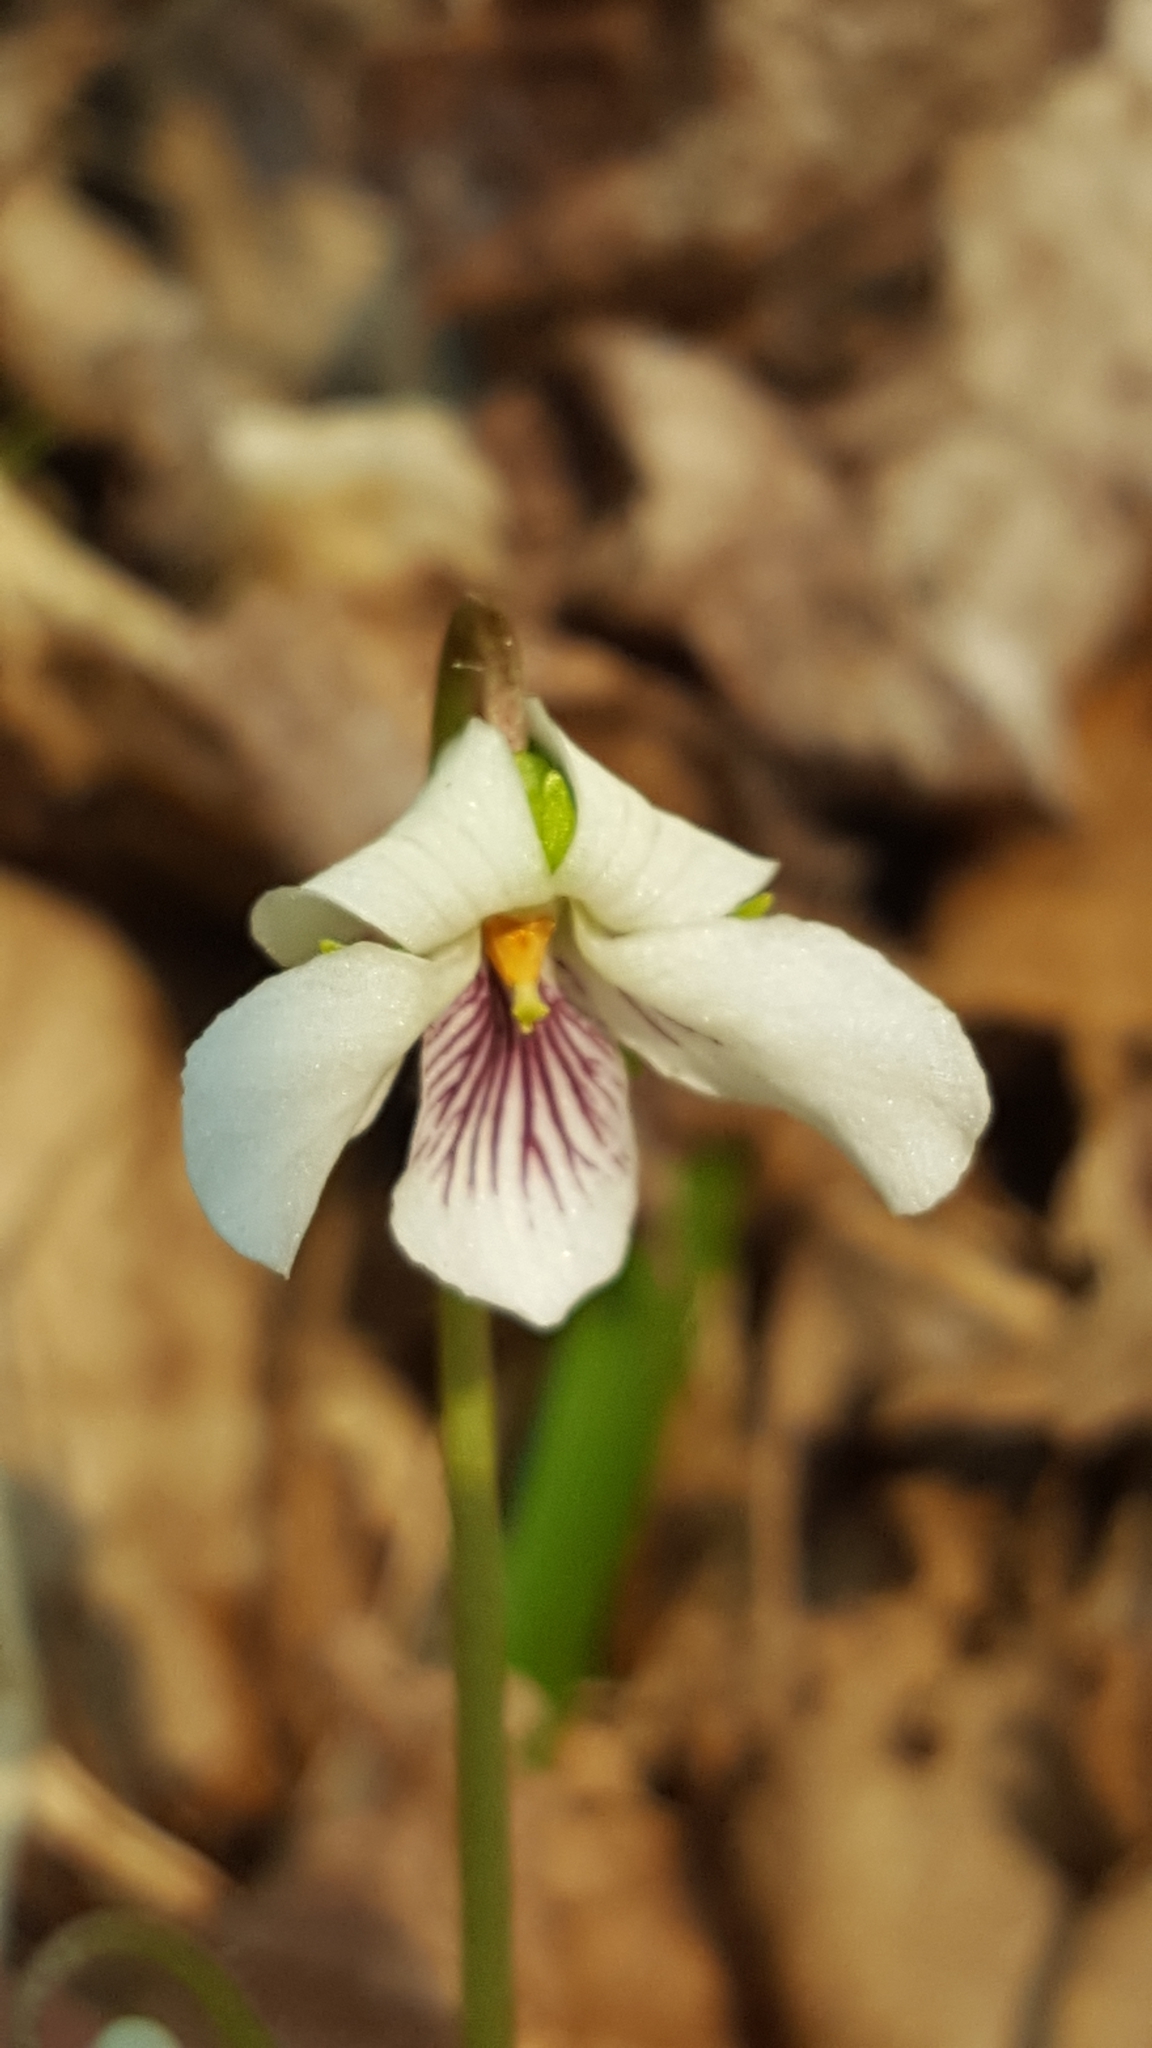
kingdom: Plantae
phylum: Tracheophyta
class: Magnoliopsida
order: Malpighiales
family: Violaceae
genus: Viola
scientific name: Viola renifolia
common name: Kidney-leaf violet
